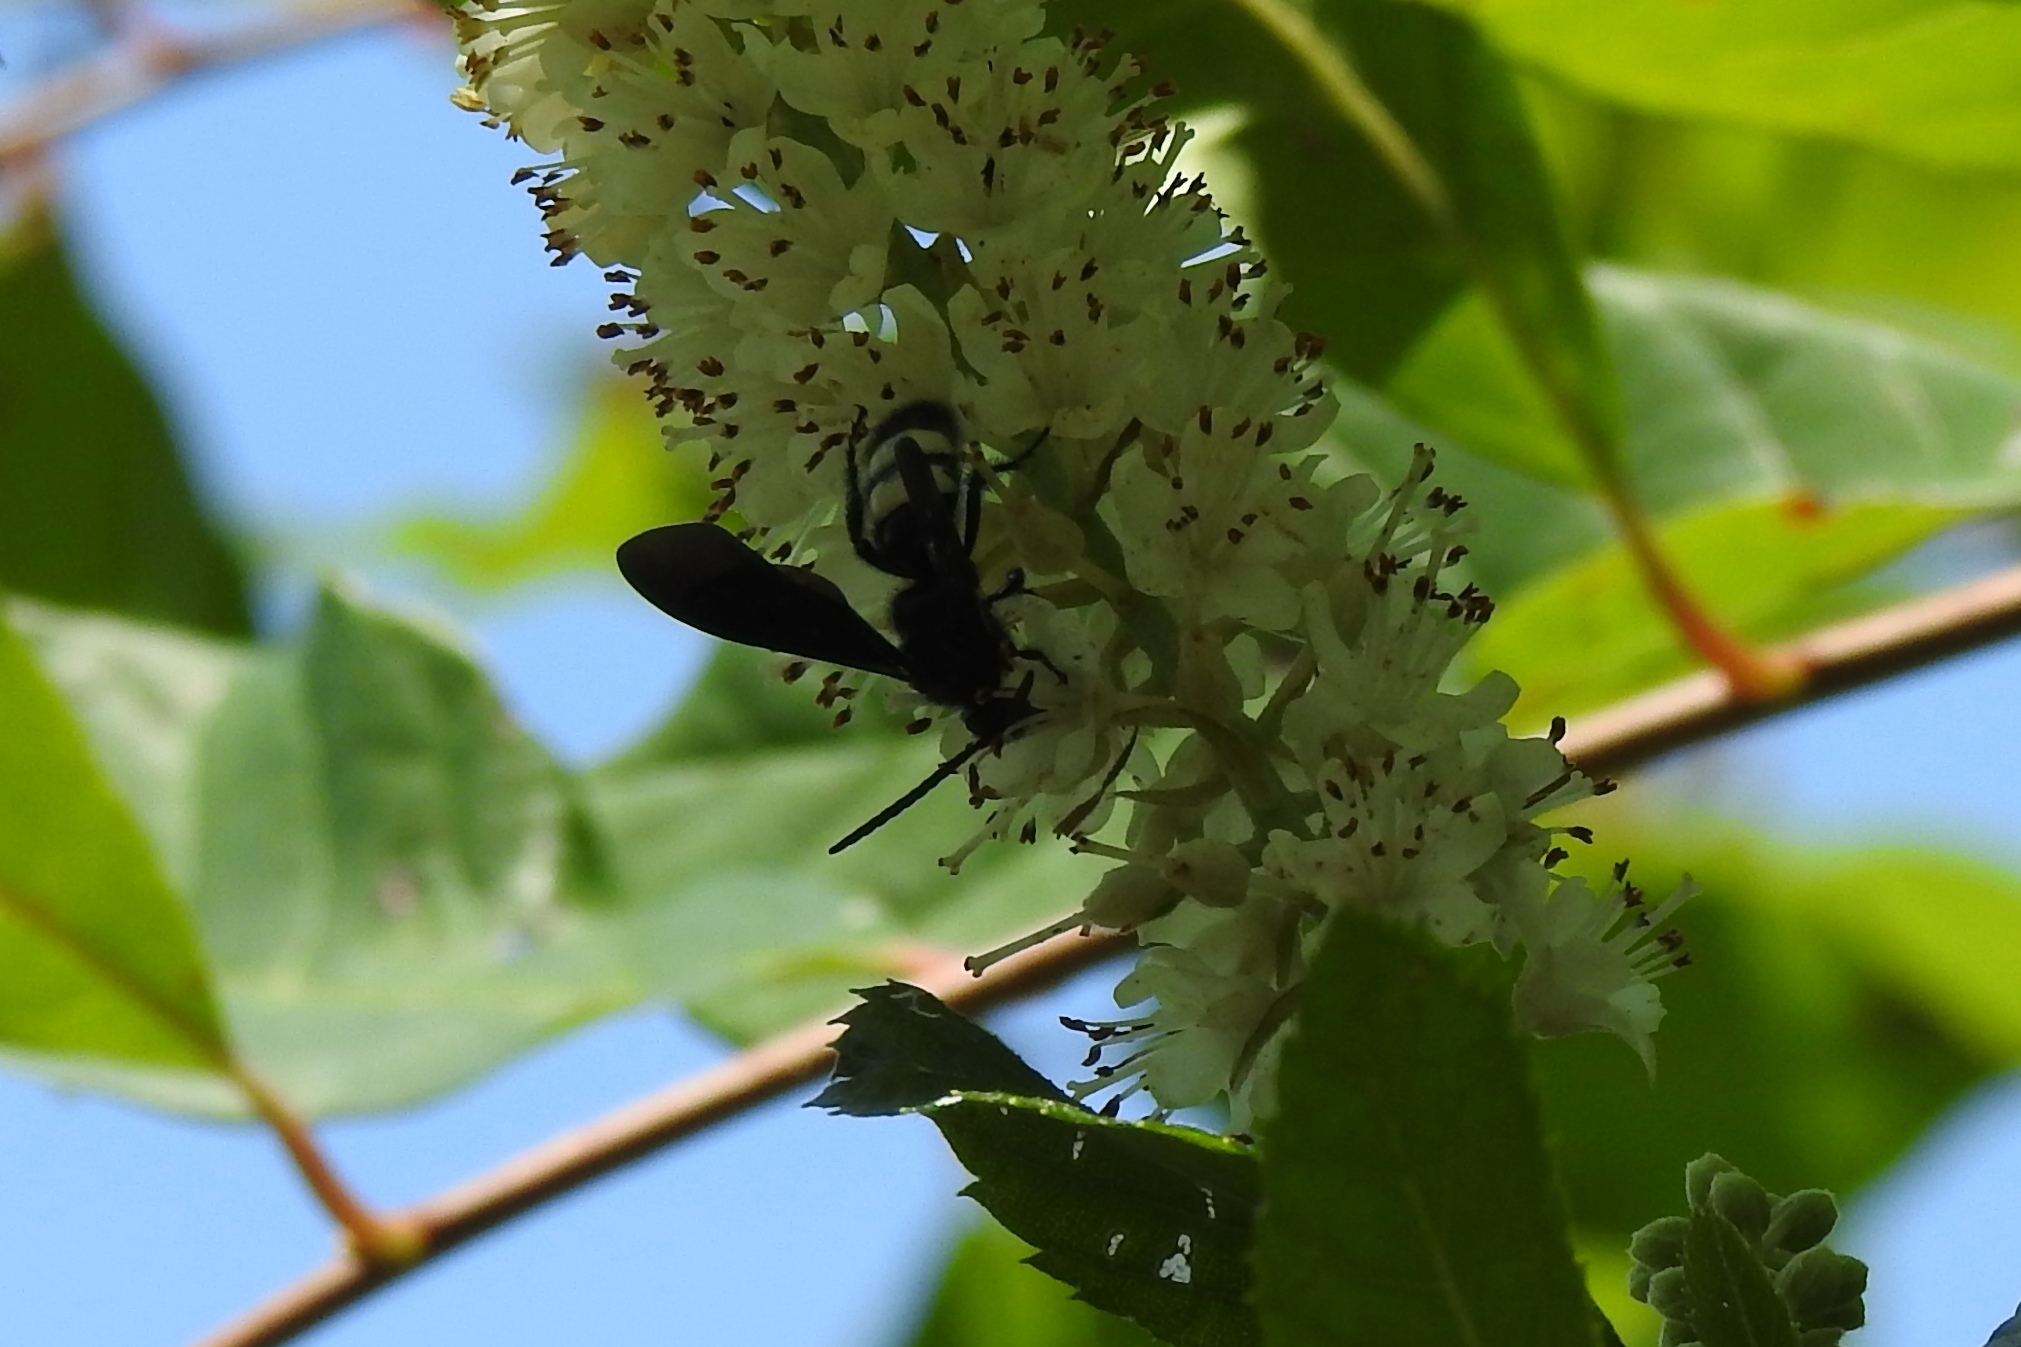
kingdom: Animalia
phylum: Arthropoda
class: Insecta
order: Hymenoptera
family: Scoliidae
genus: Scolia
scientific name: Scolia bicincta
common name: Double-banded scoliid wasp
